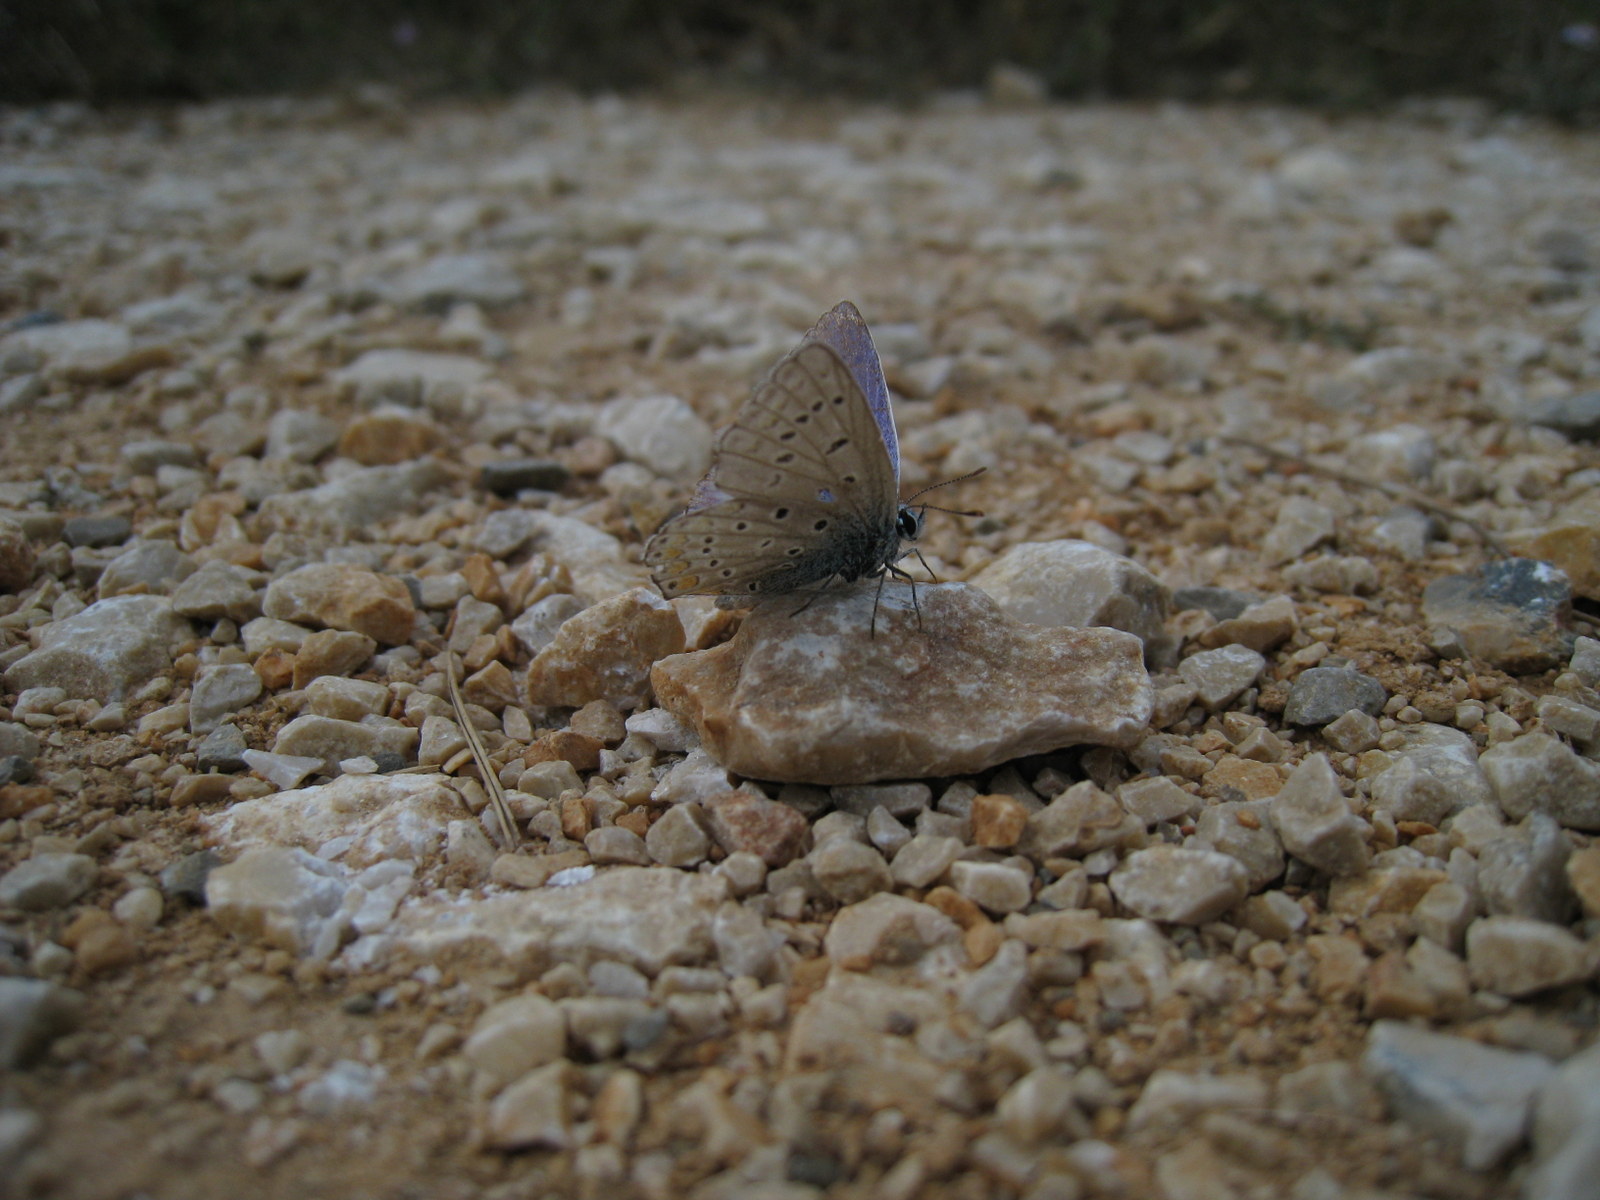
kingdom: Animalia
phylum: Arthropoda
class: Insecta
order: Lepidoptera
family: Lycaenidae
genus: Polyommatus
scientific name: Polyommatus icarus
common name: Common blue
